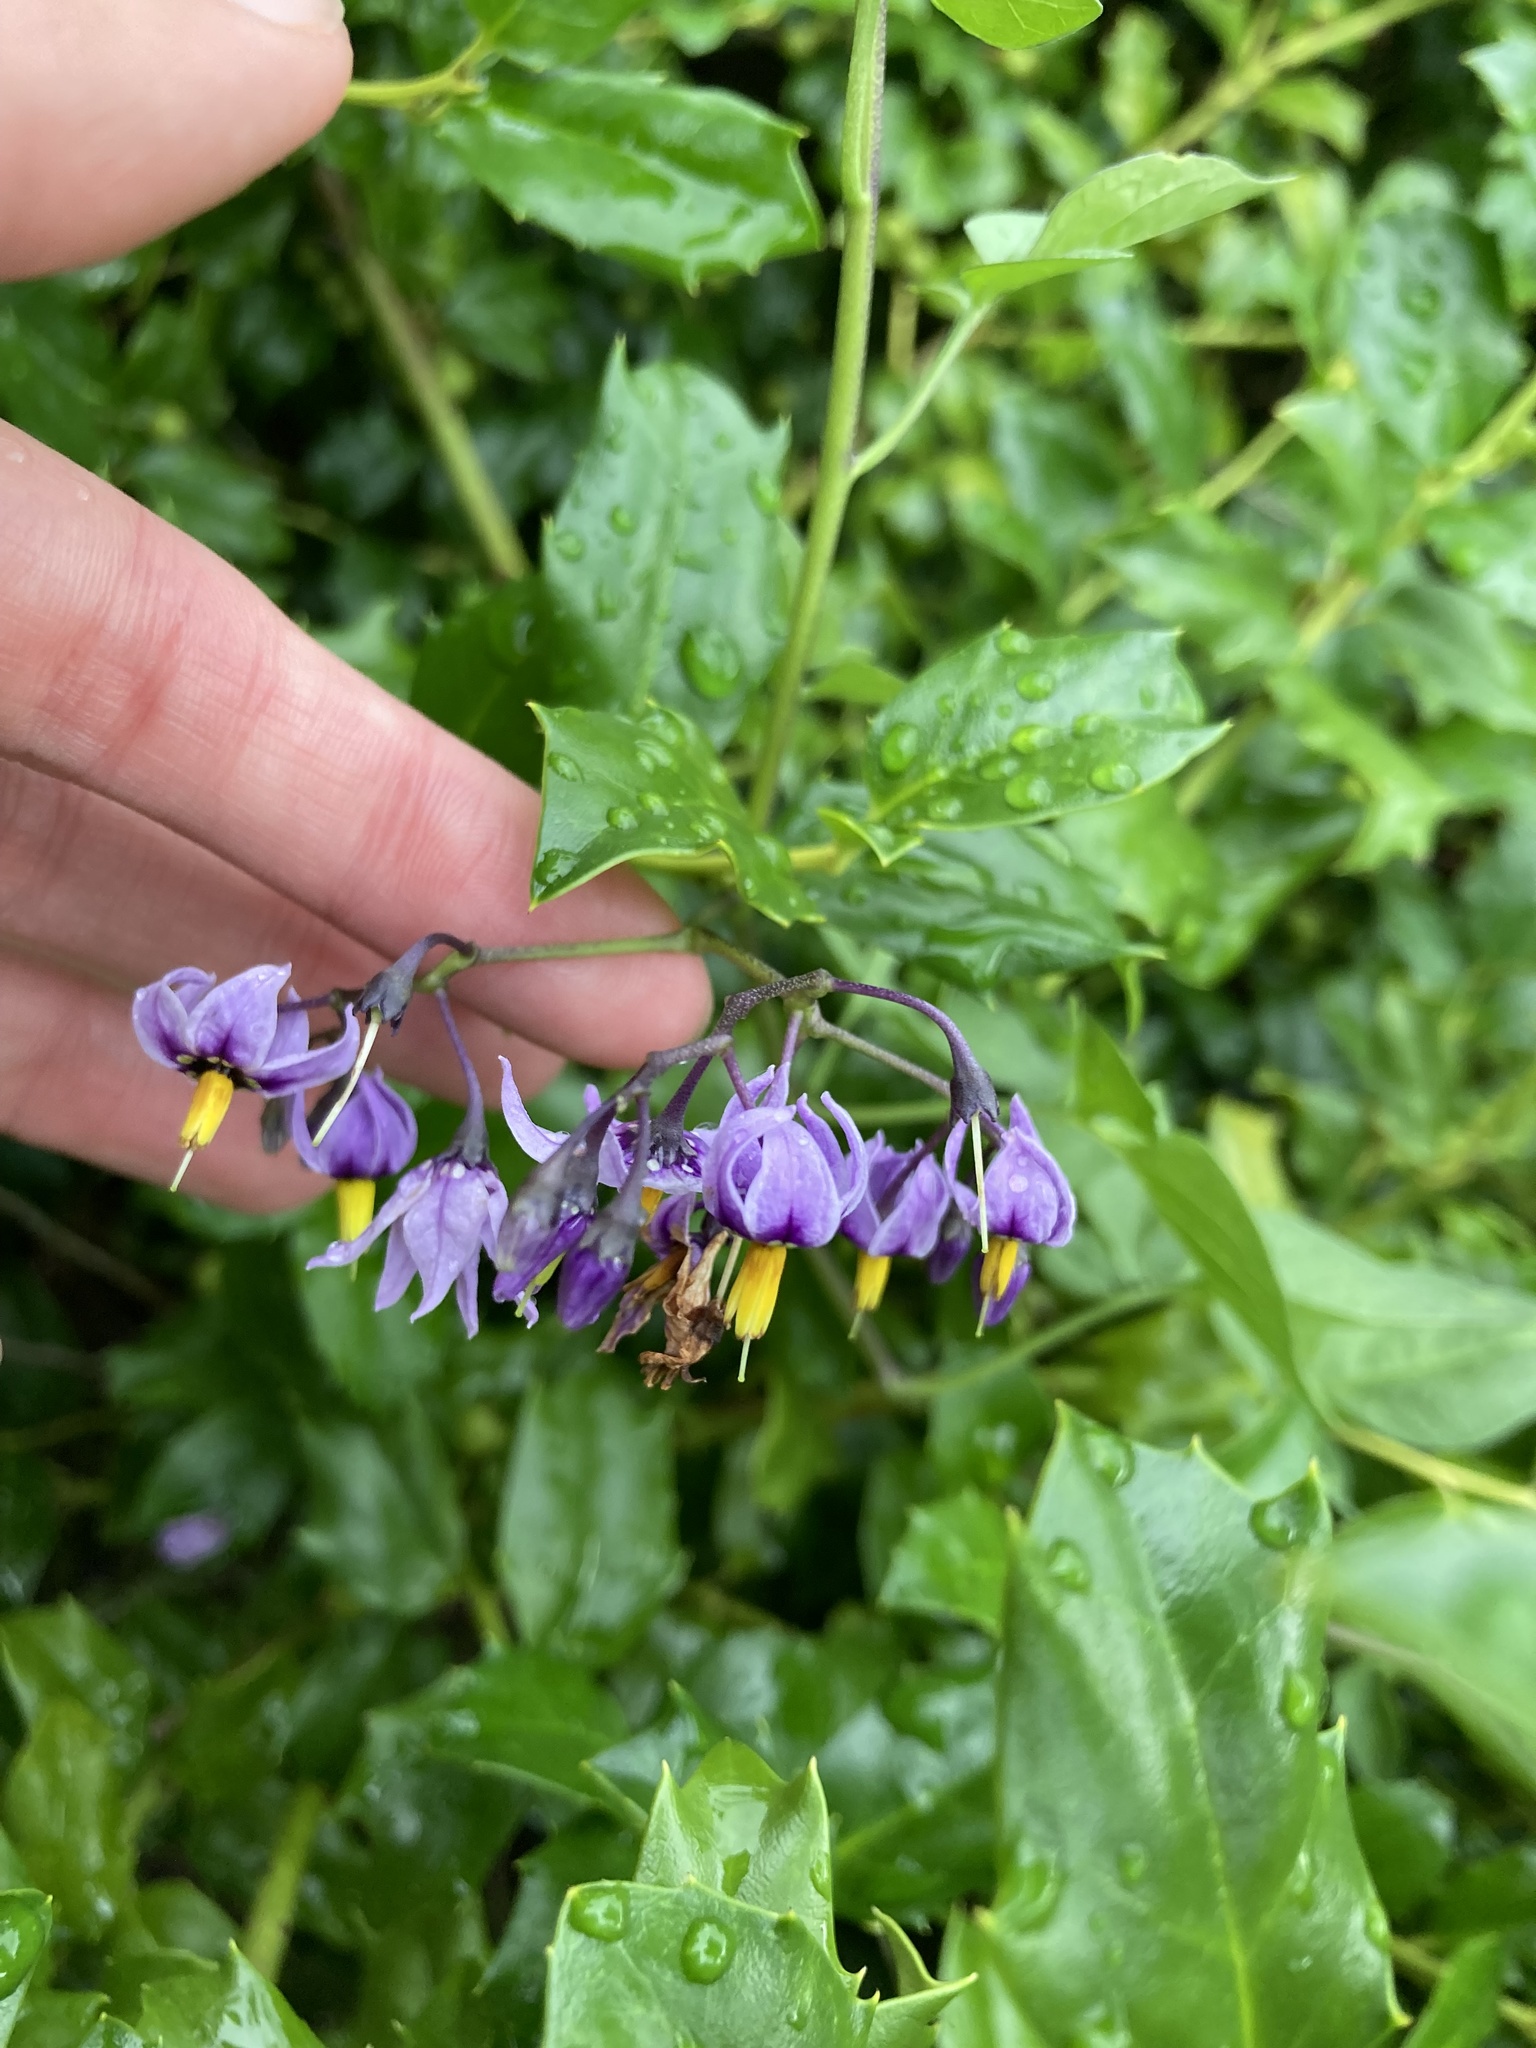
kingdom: Plantae
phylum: Tracheophyta
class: Magnoliopsida
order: Solanales
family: Solanaceae
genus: Solanum
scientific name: Solanum dulcamara
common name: Climbing nightshade
